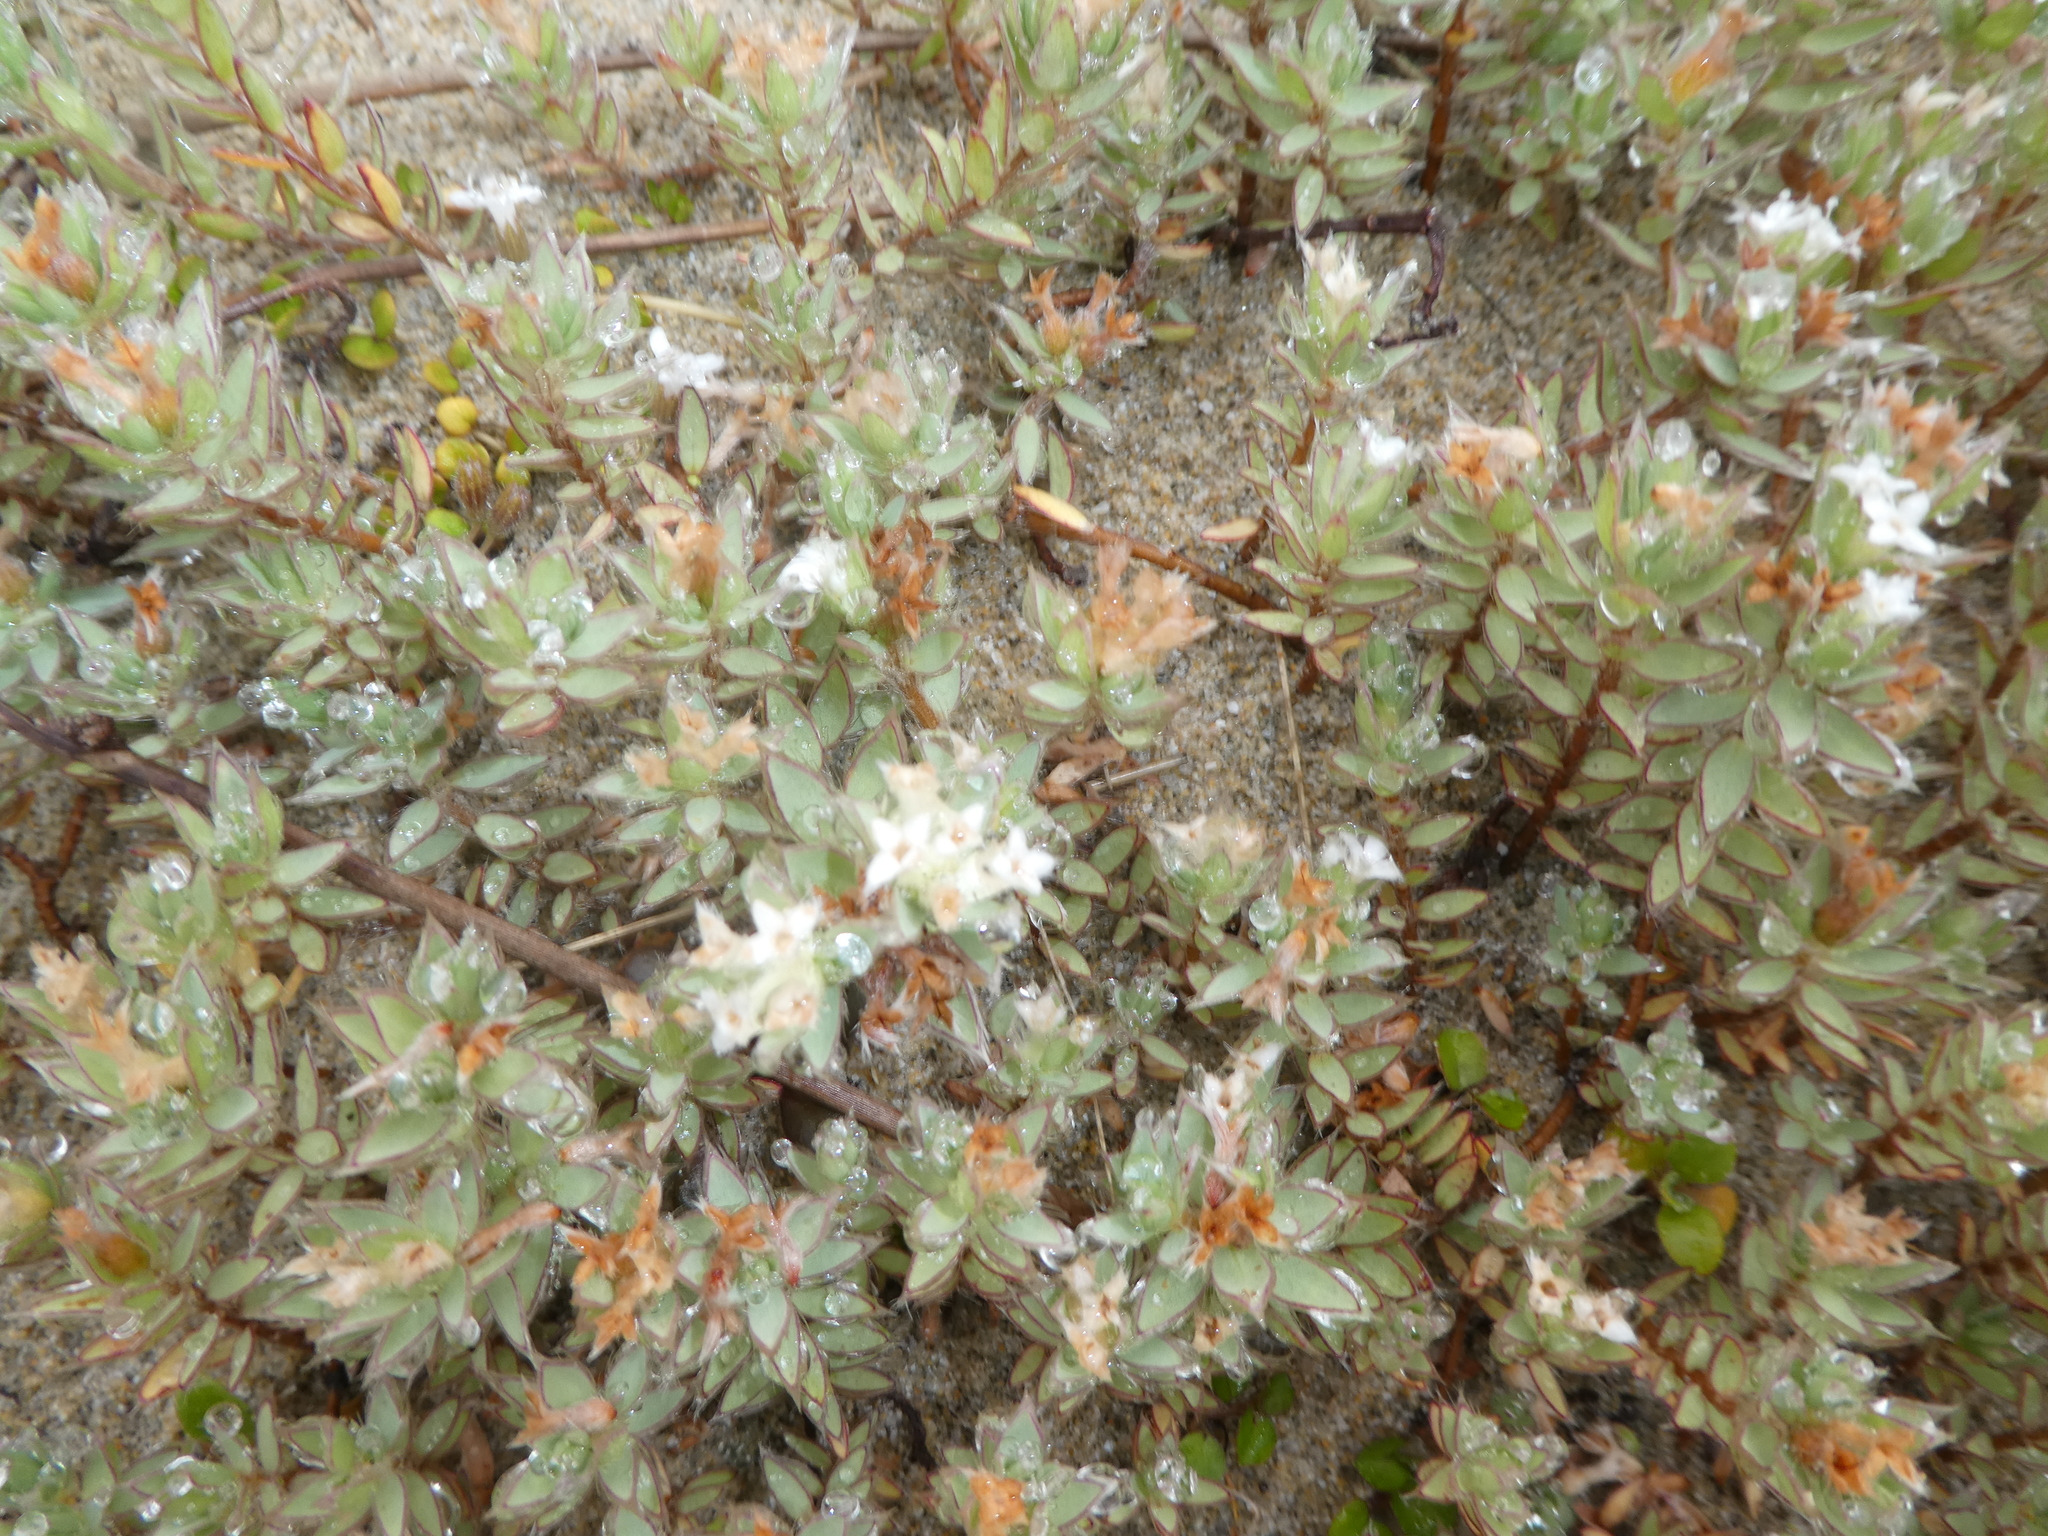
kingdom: Plantae
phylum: Tracheophyta
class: Magnoliopsida
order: Malvales
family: Thymelaeaceae
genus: Pimelea
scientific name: Pimelea lyallii
